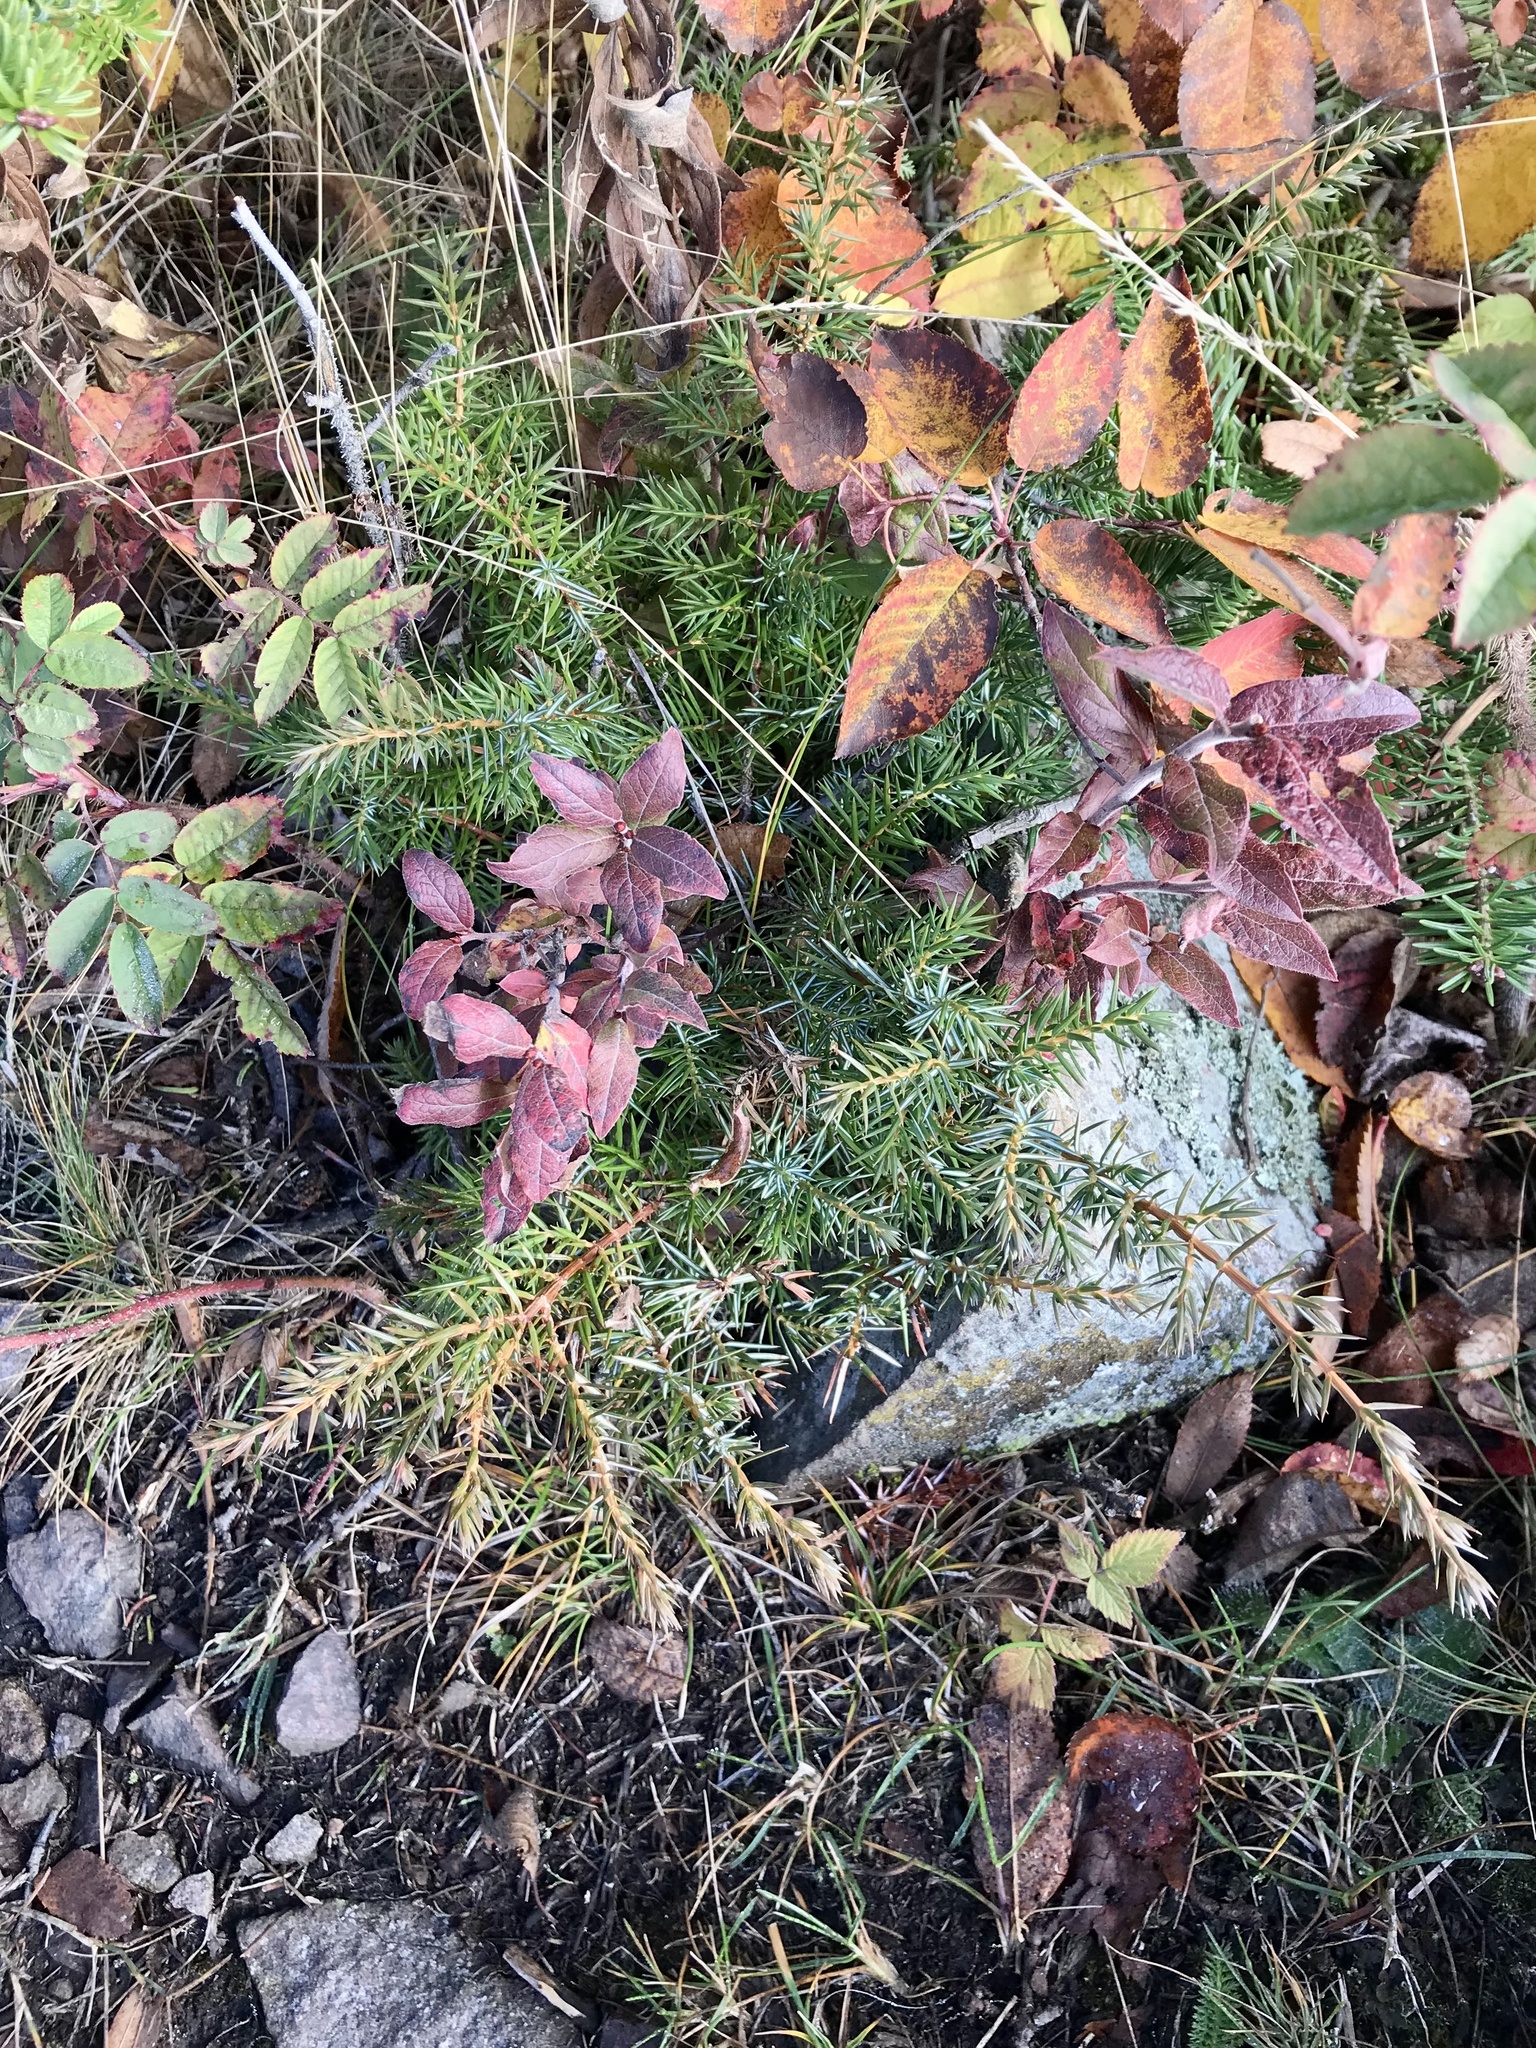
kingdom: Plantae
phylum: Tracheophyta
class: Pinopsida
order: Pinales
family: Cupressaceae
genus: Juniperus
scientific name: Juniperus communis
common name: Common juniper
